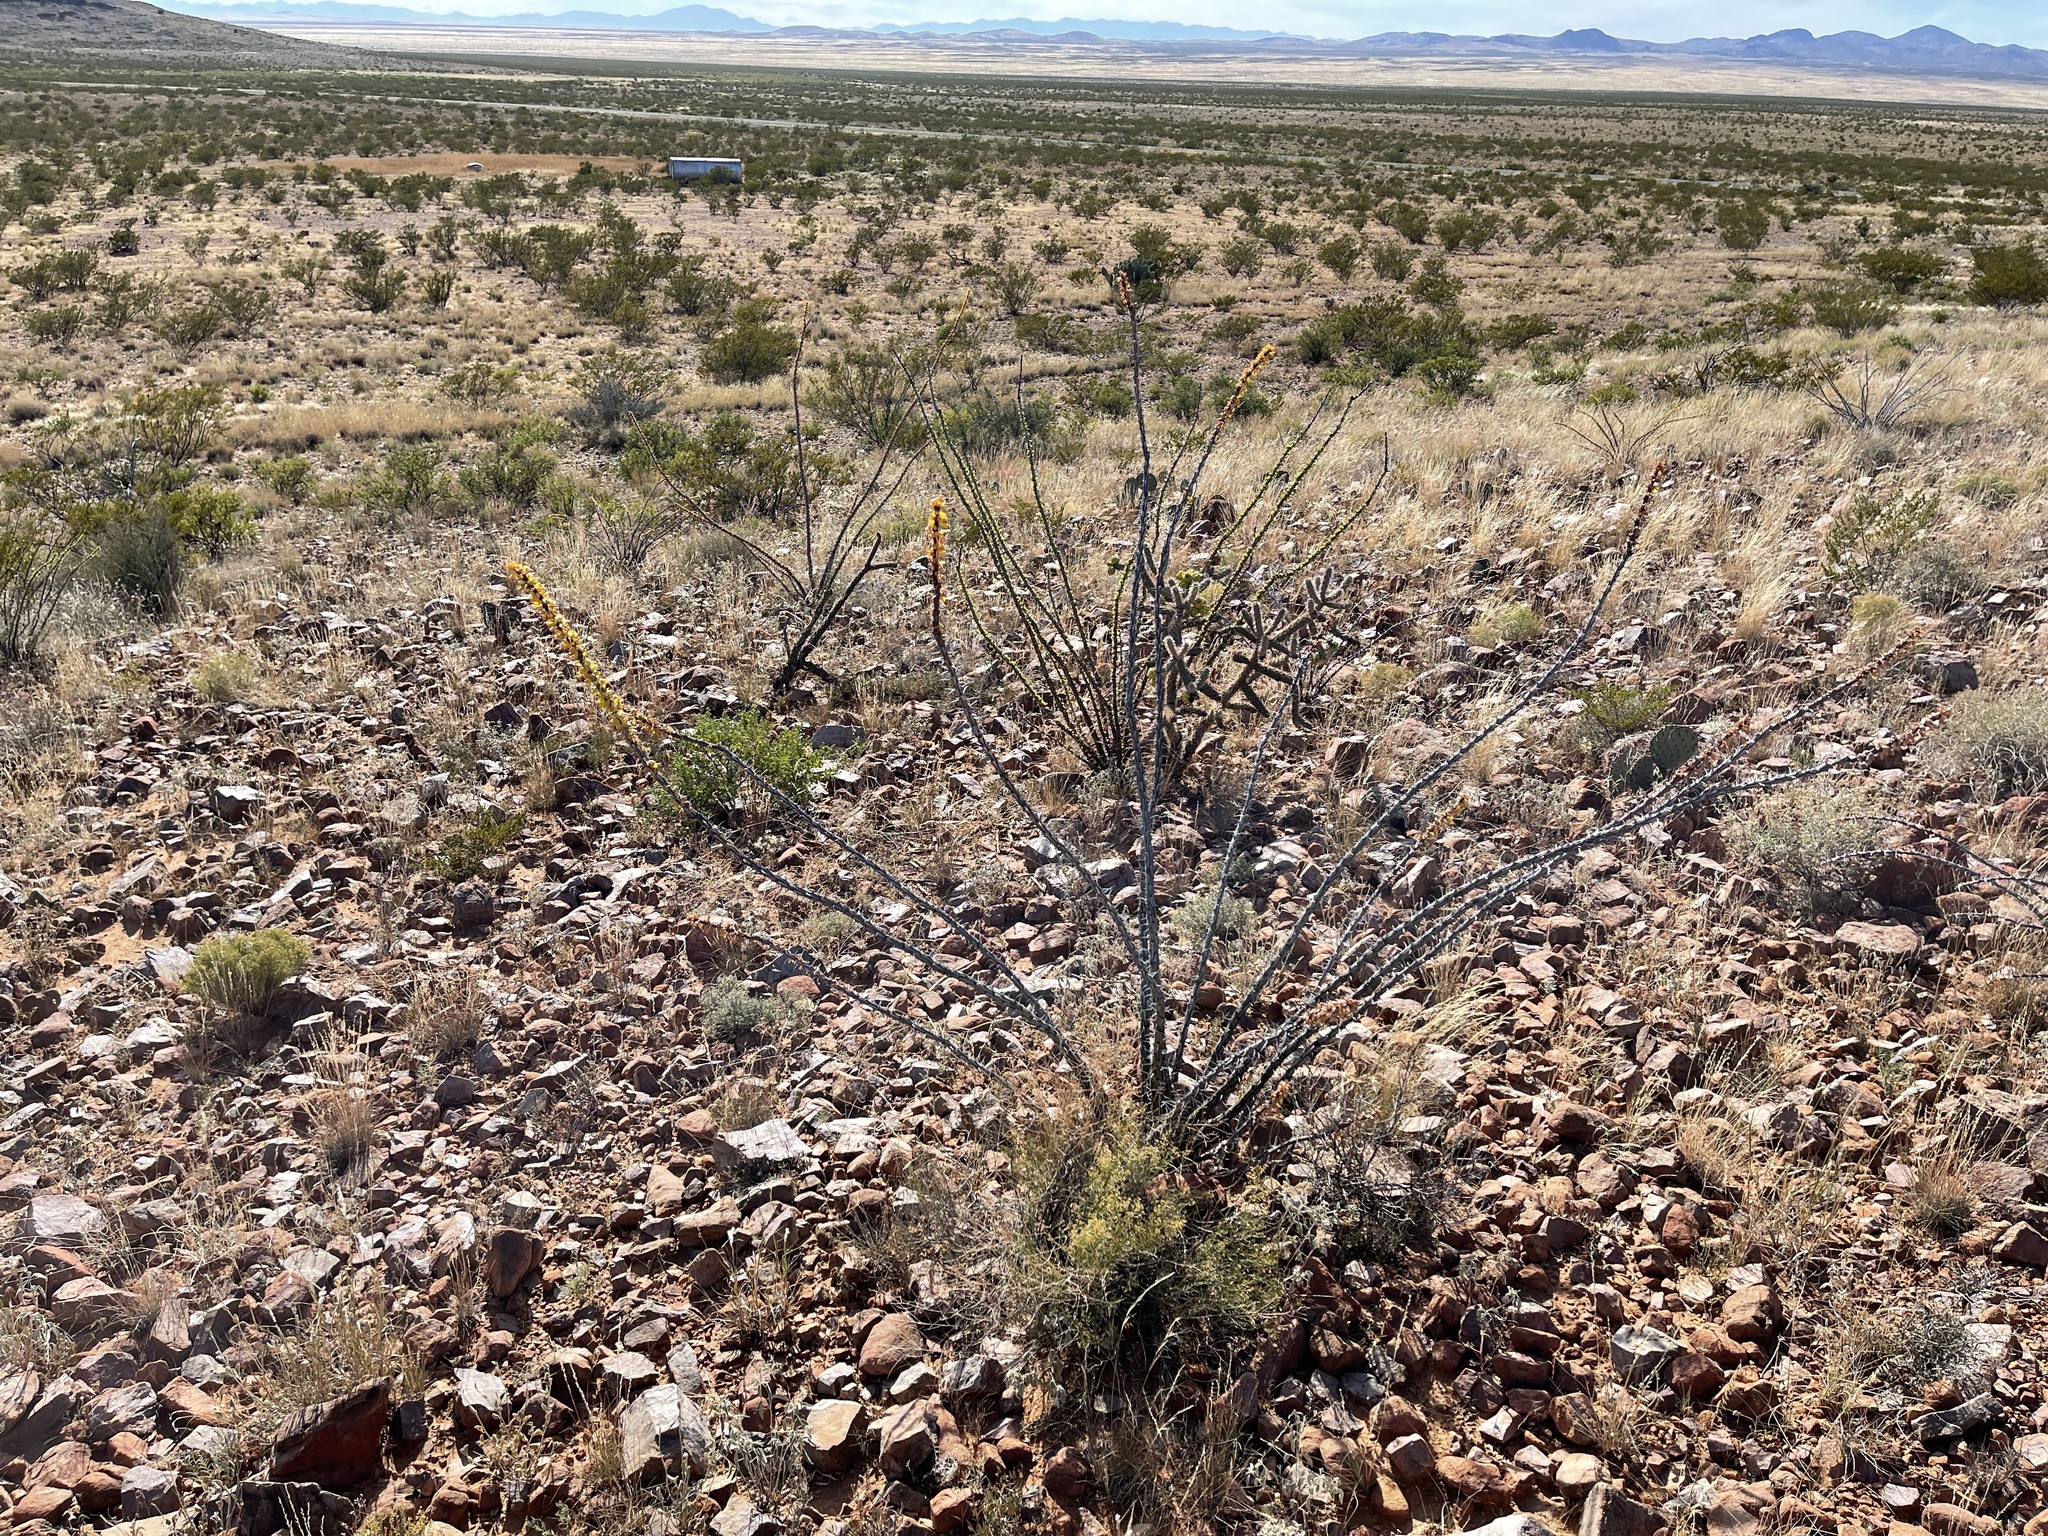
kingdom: Plantae
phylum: Tracheophyta
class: Magnoliopsida
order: Ericales
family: Fouquieriaceae
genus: Fouquieria
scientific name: Fouquieria splendens
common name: Vine-cactus
